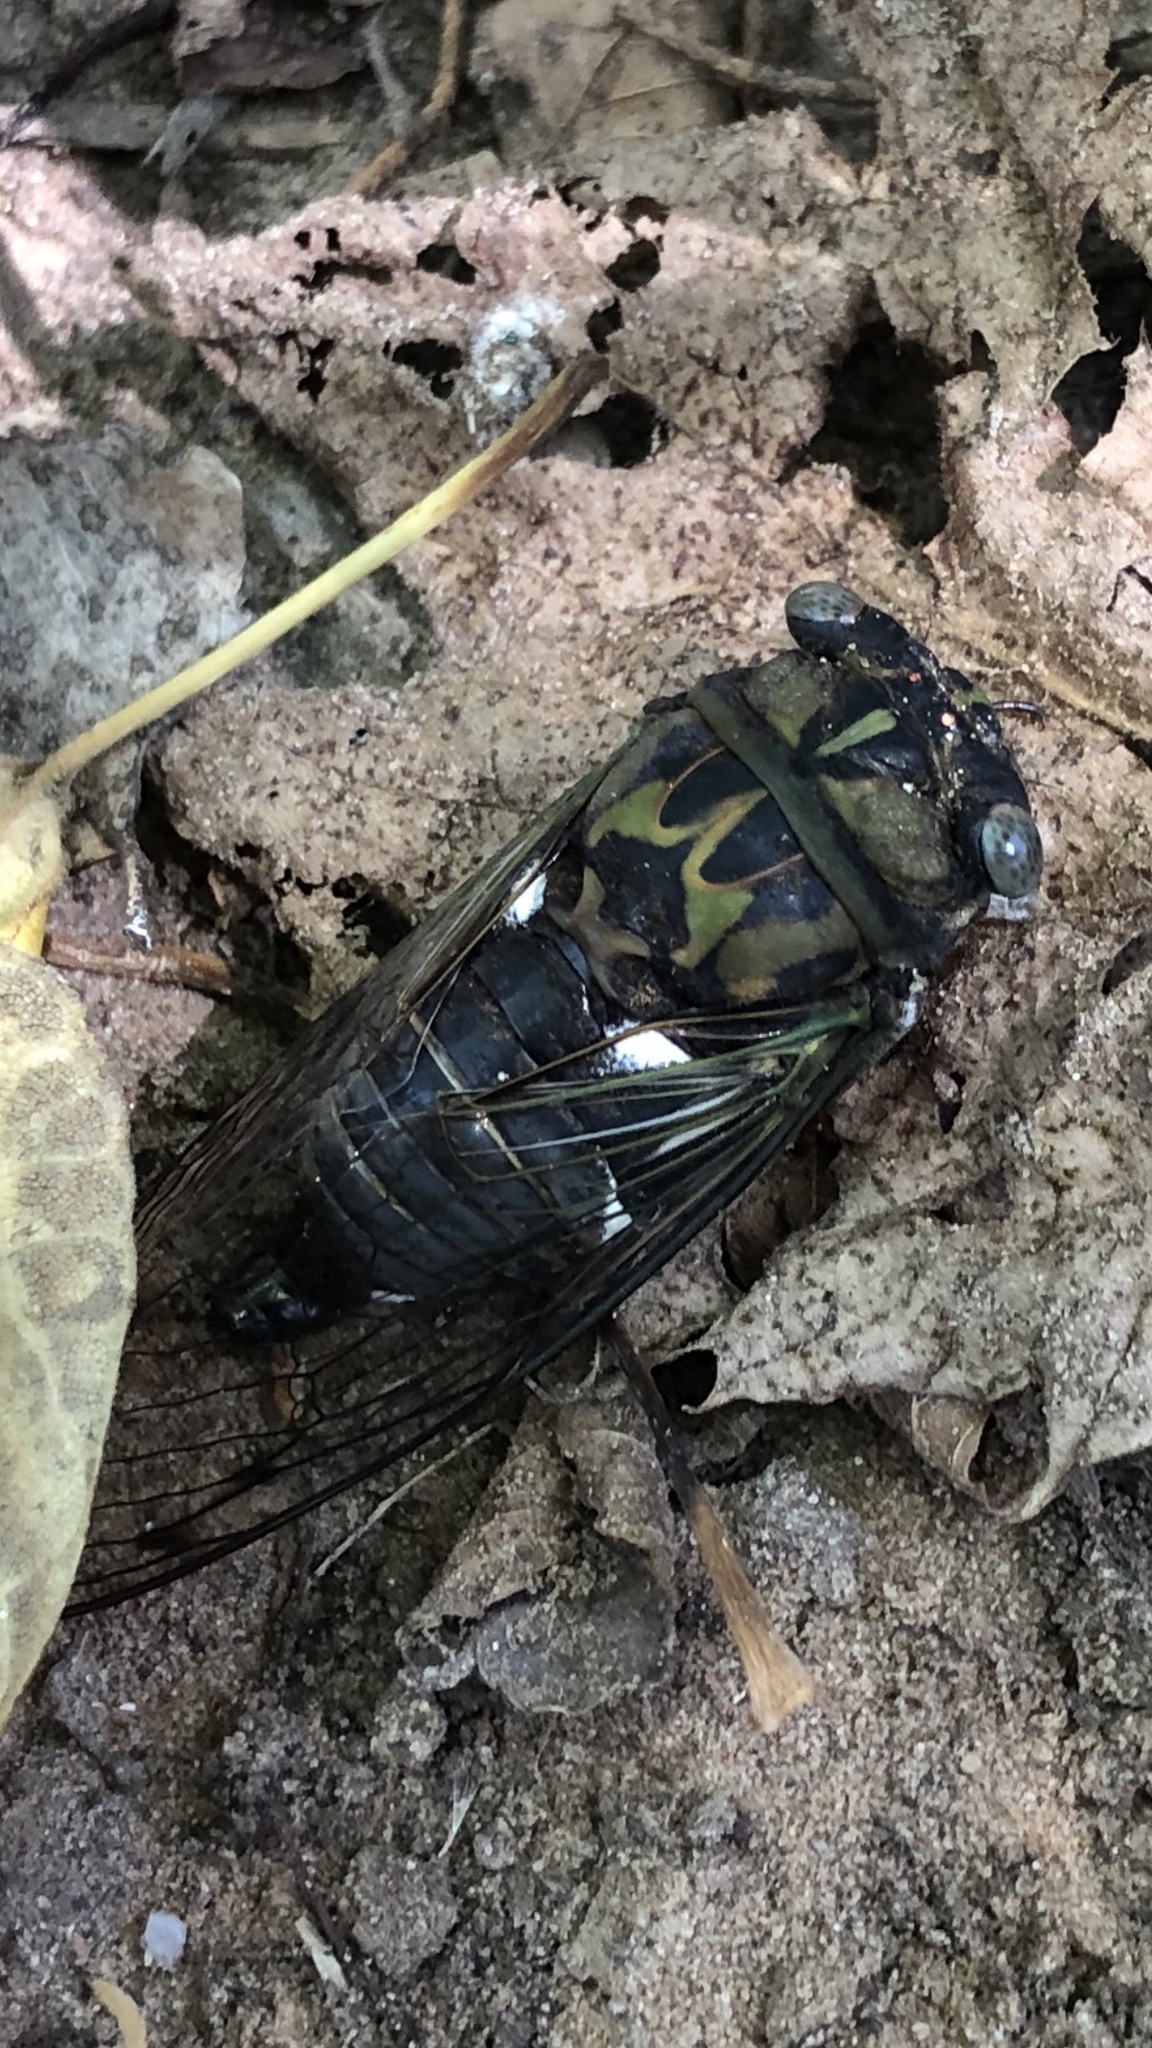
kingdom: Animalia
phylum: Arthropoda
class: Insecta
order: Hemiptera
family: Cicadidae
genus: Neotibicen
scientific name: Neotibicen pruinosus
